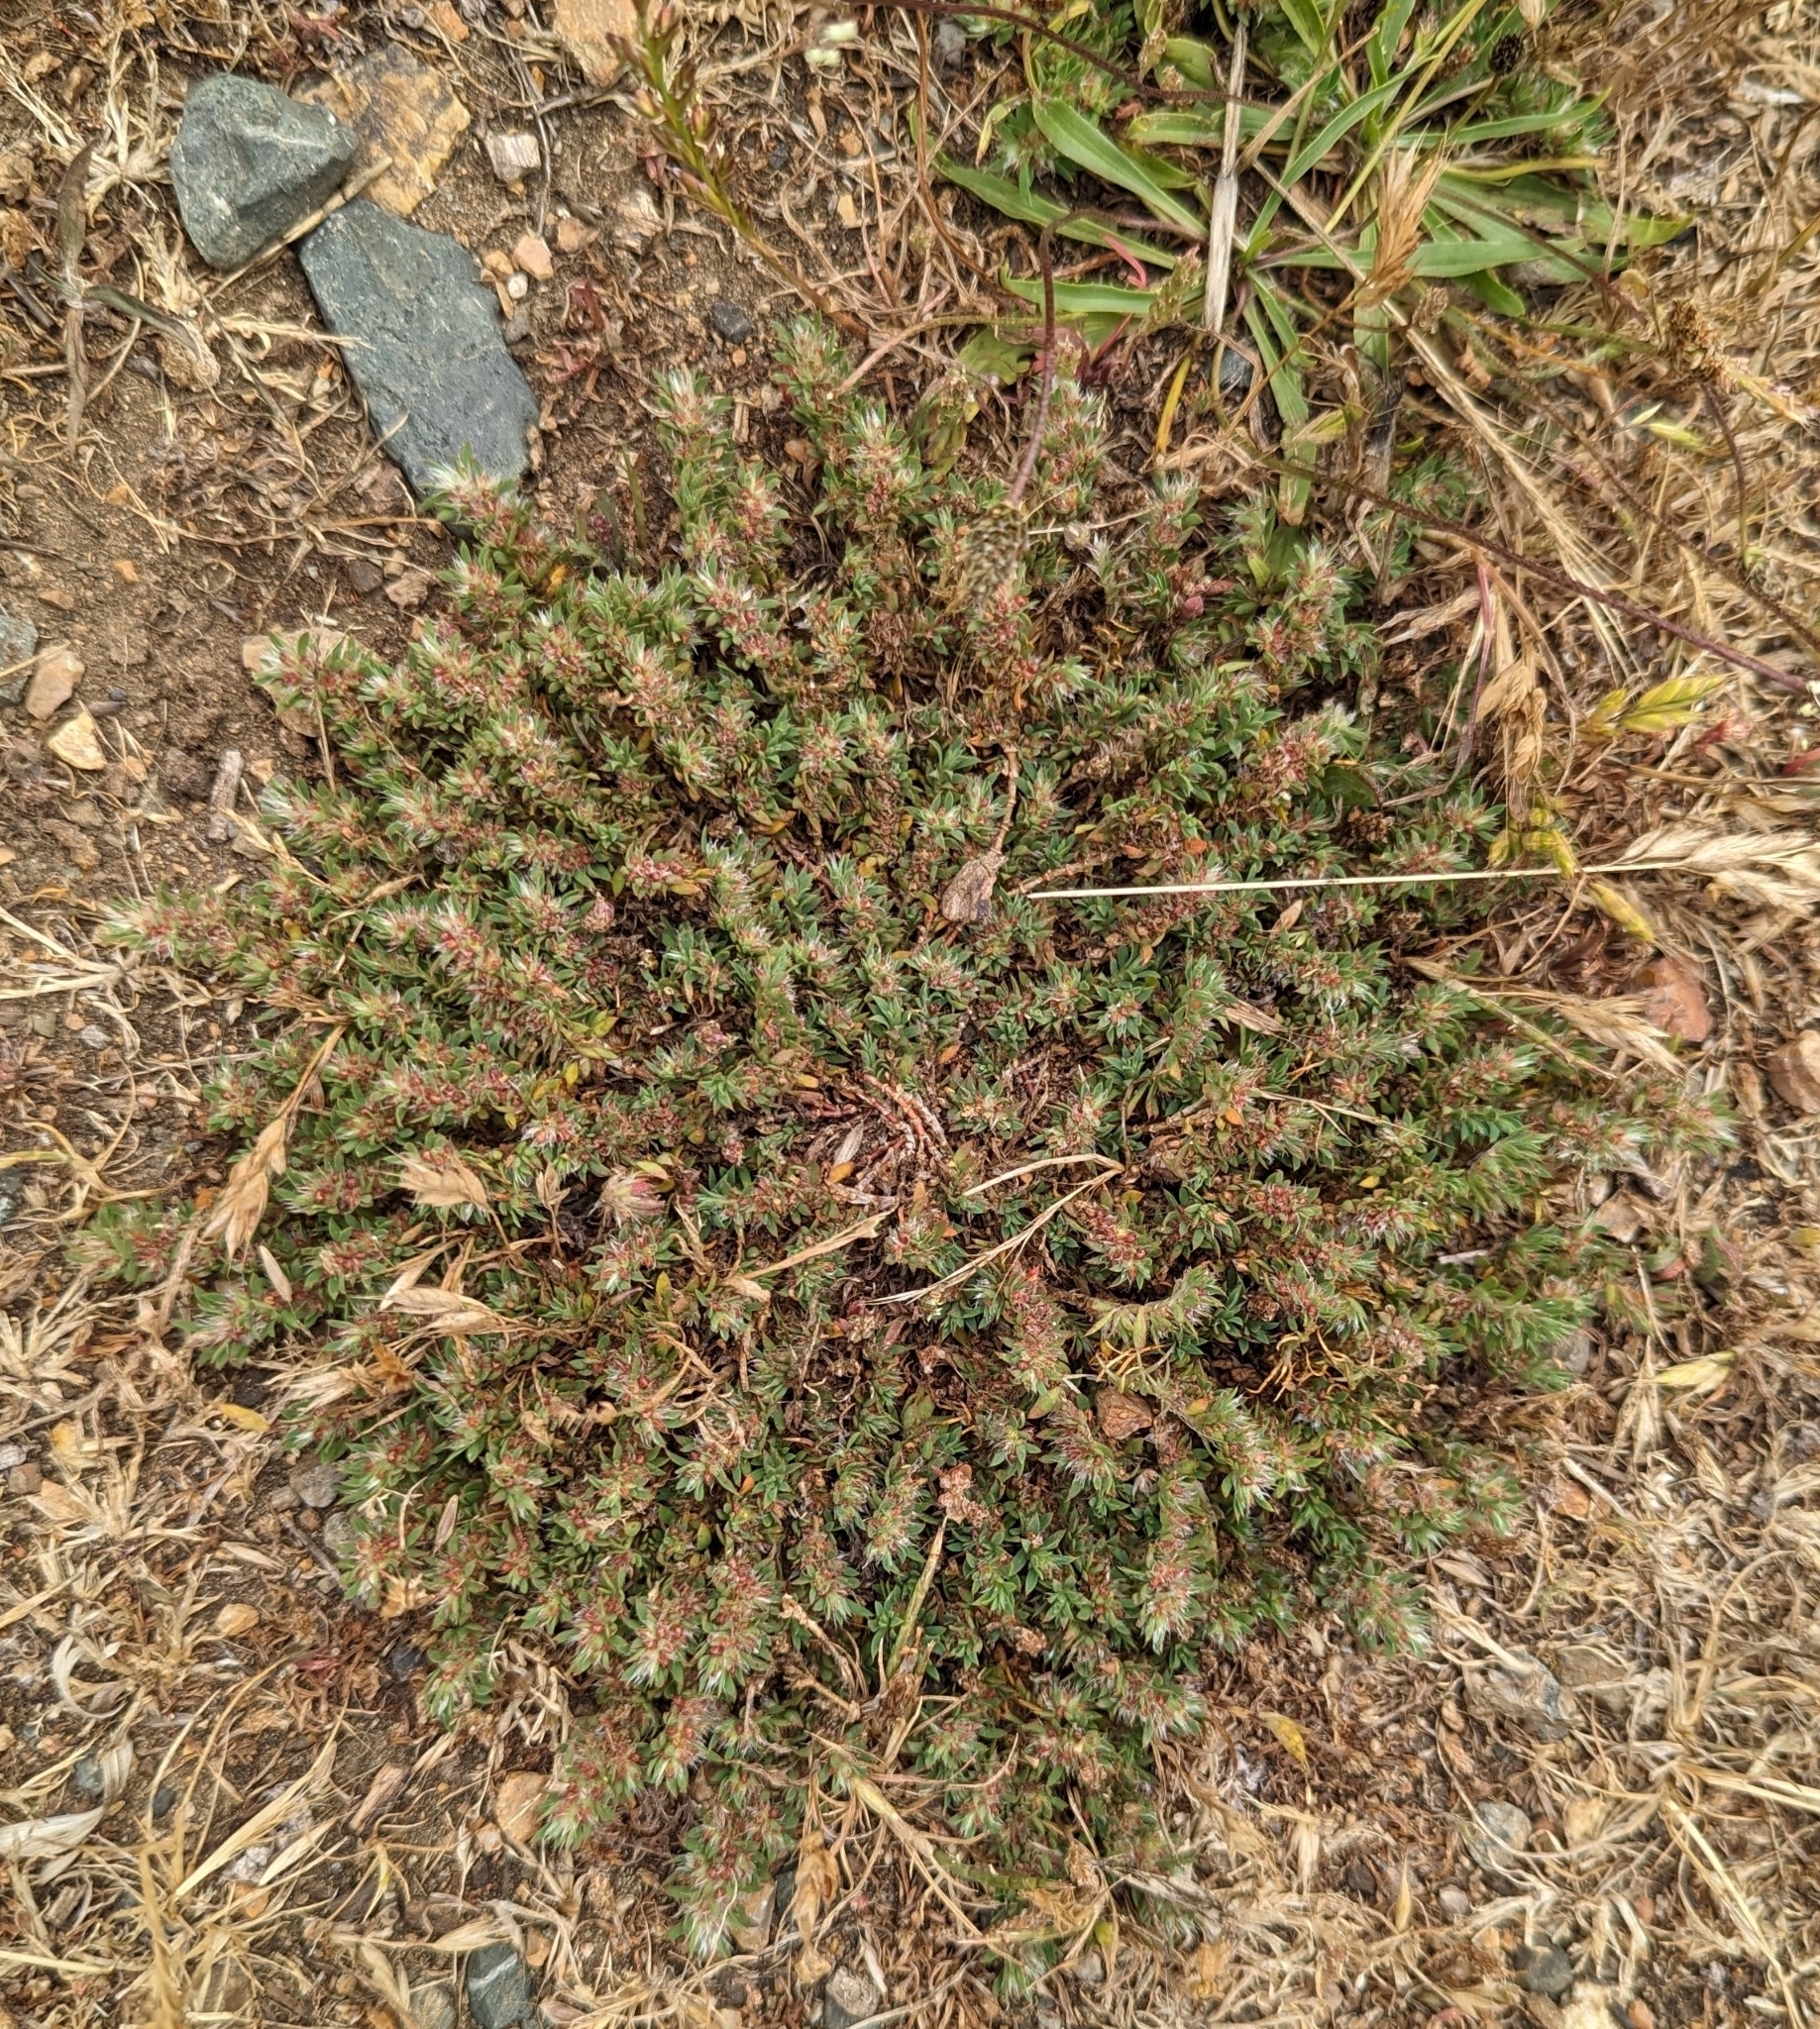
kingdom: Plantae
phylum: Tracheophyta
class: Magnoliopsida
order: Caryophyllales
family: Caryophyllaceae
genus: Cardionema
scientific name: Cardionema ramosissima
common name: Sandcarpet
